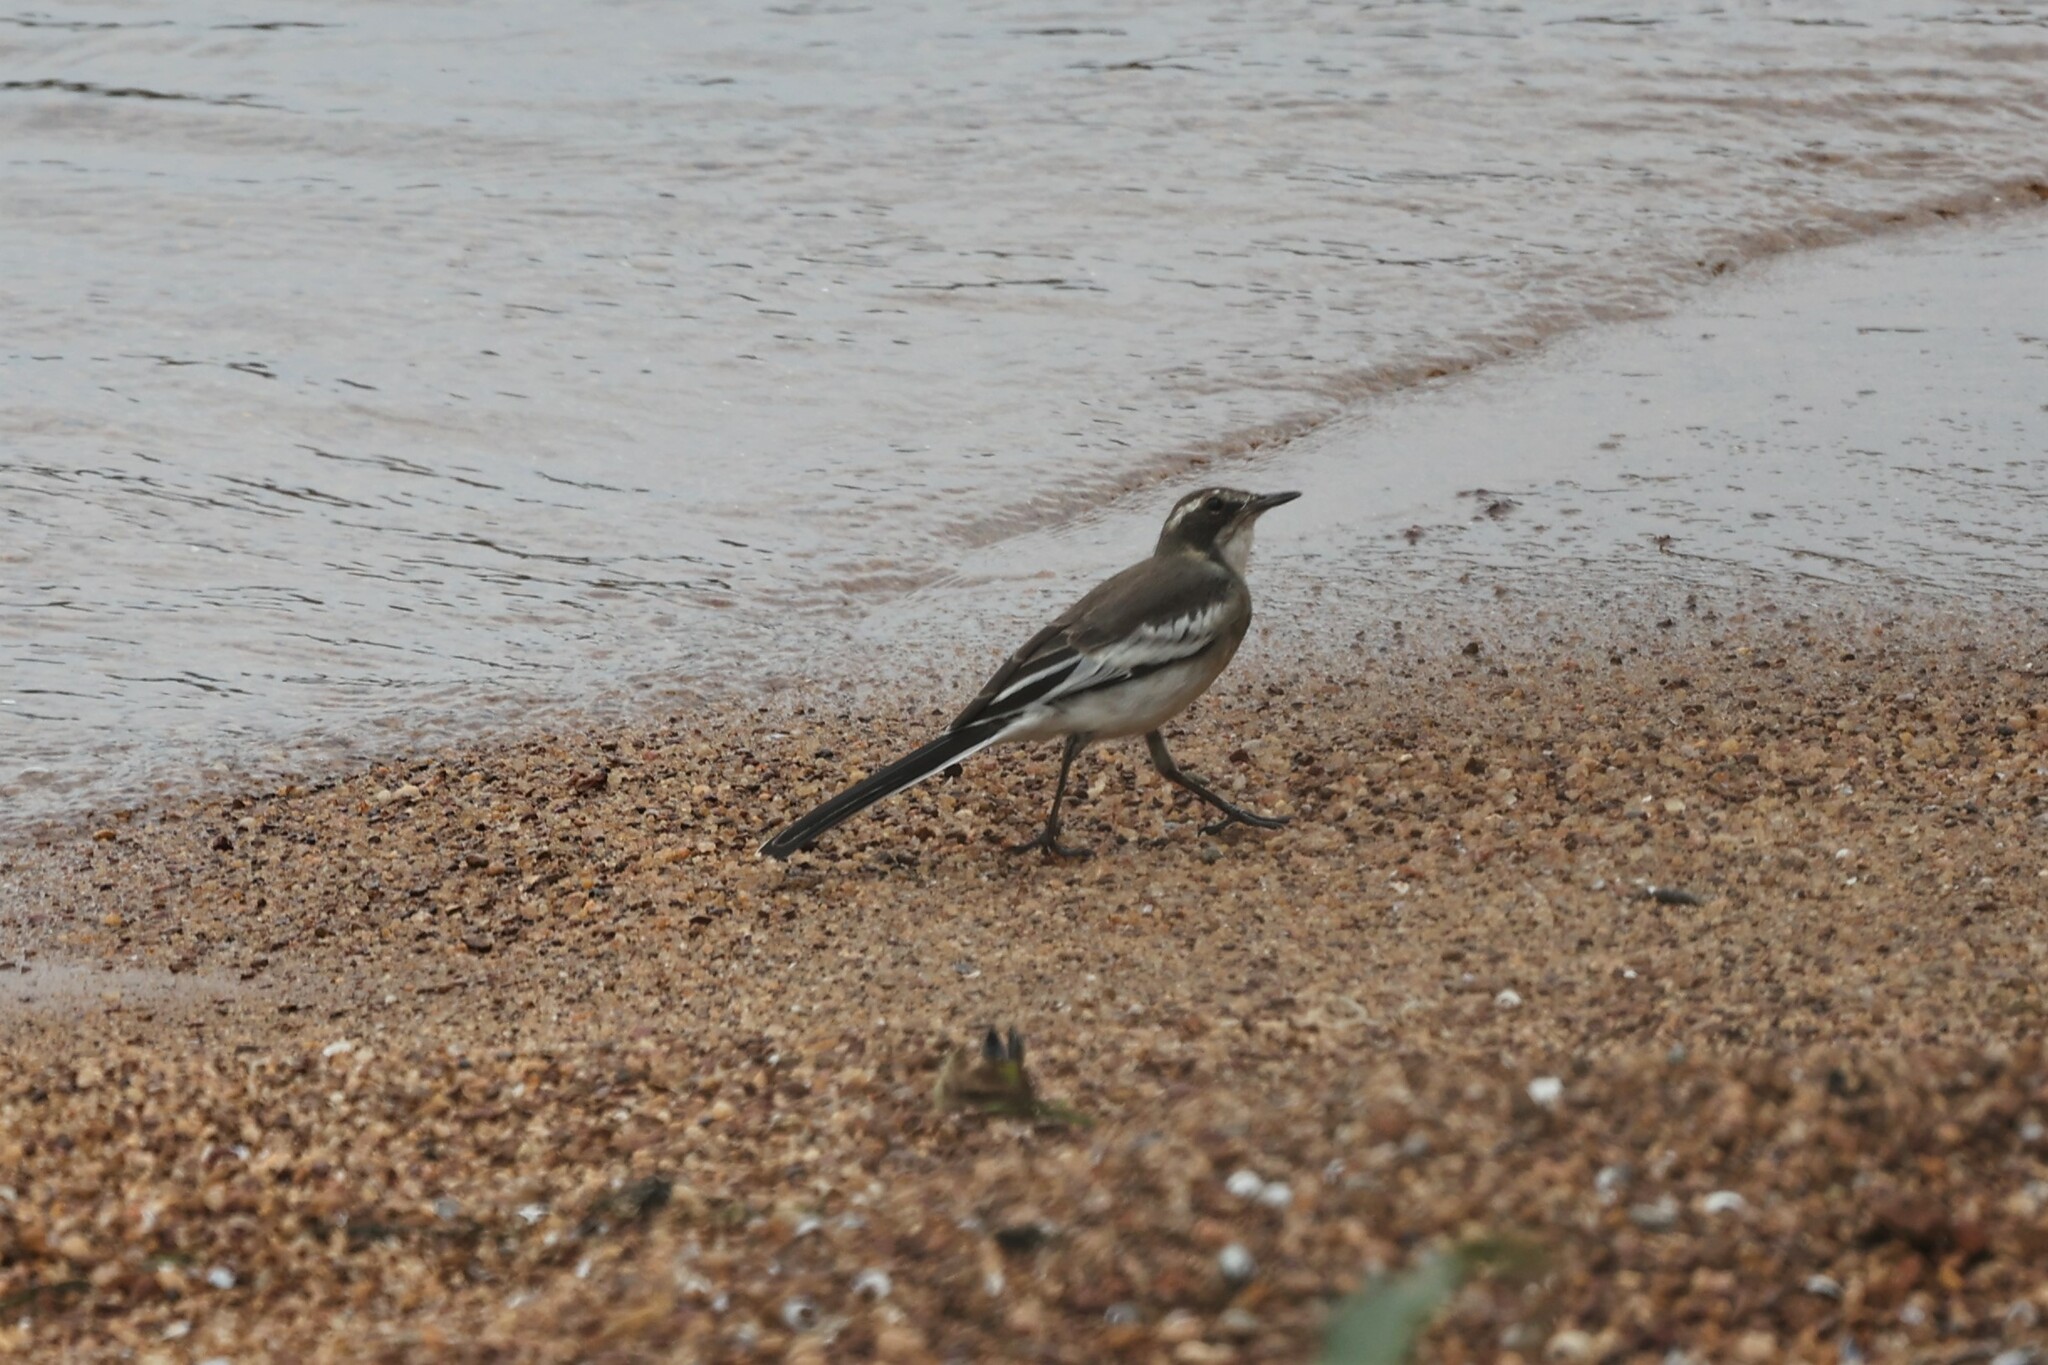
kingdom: Animalia
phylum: Chordata
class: Aves
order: Passeriformes
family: Motacillidae
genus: Motacilla
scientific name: Motacilla aguimp
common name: African pied wagtail
